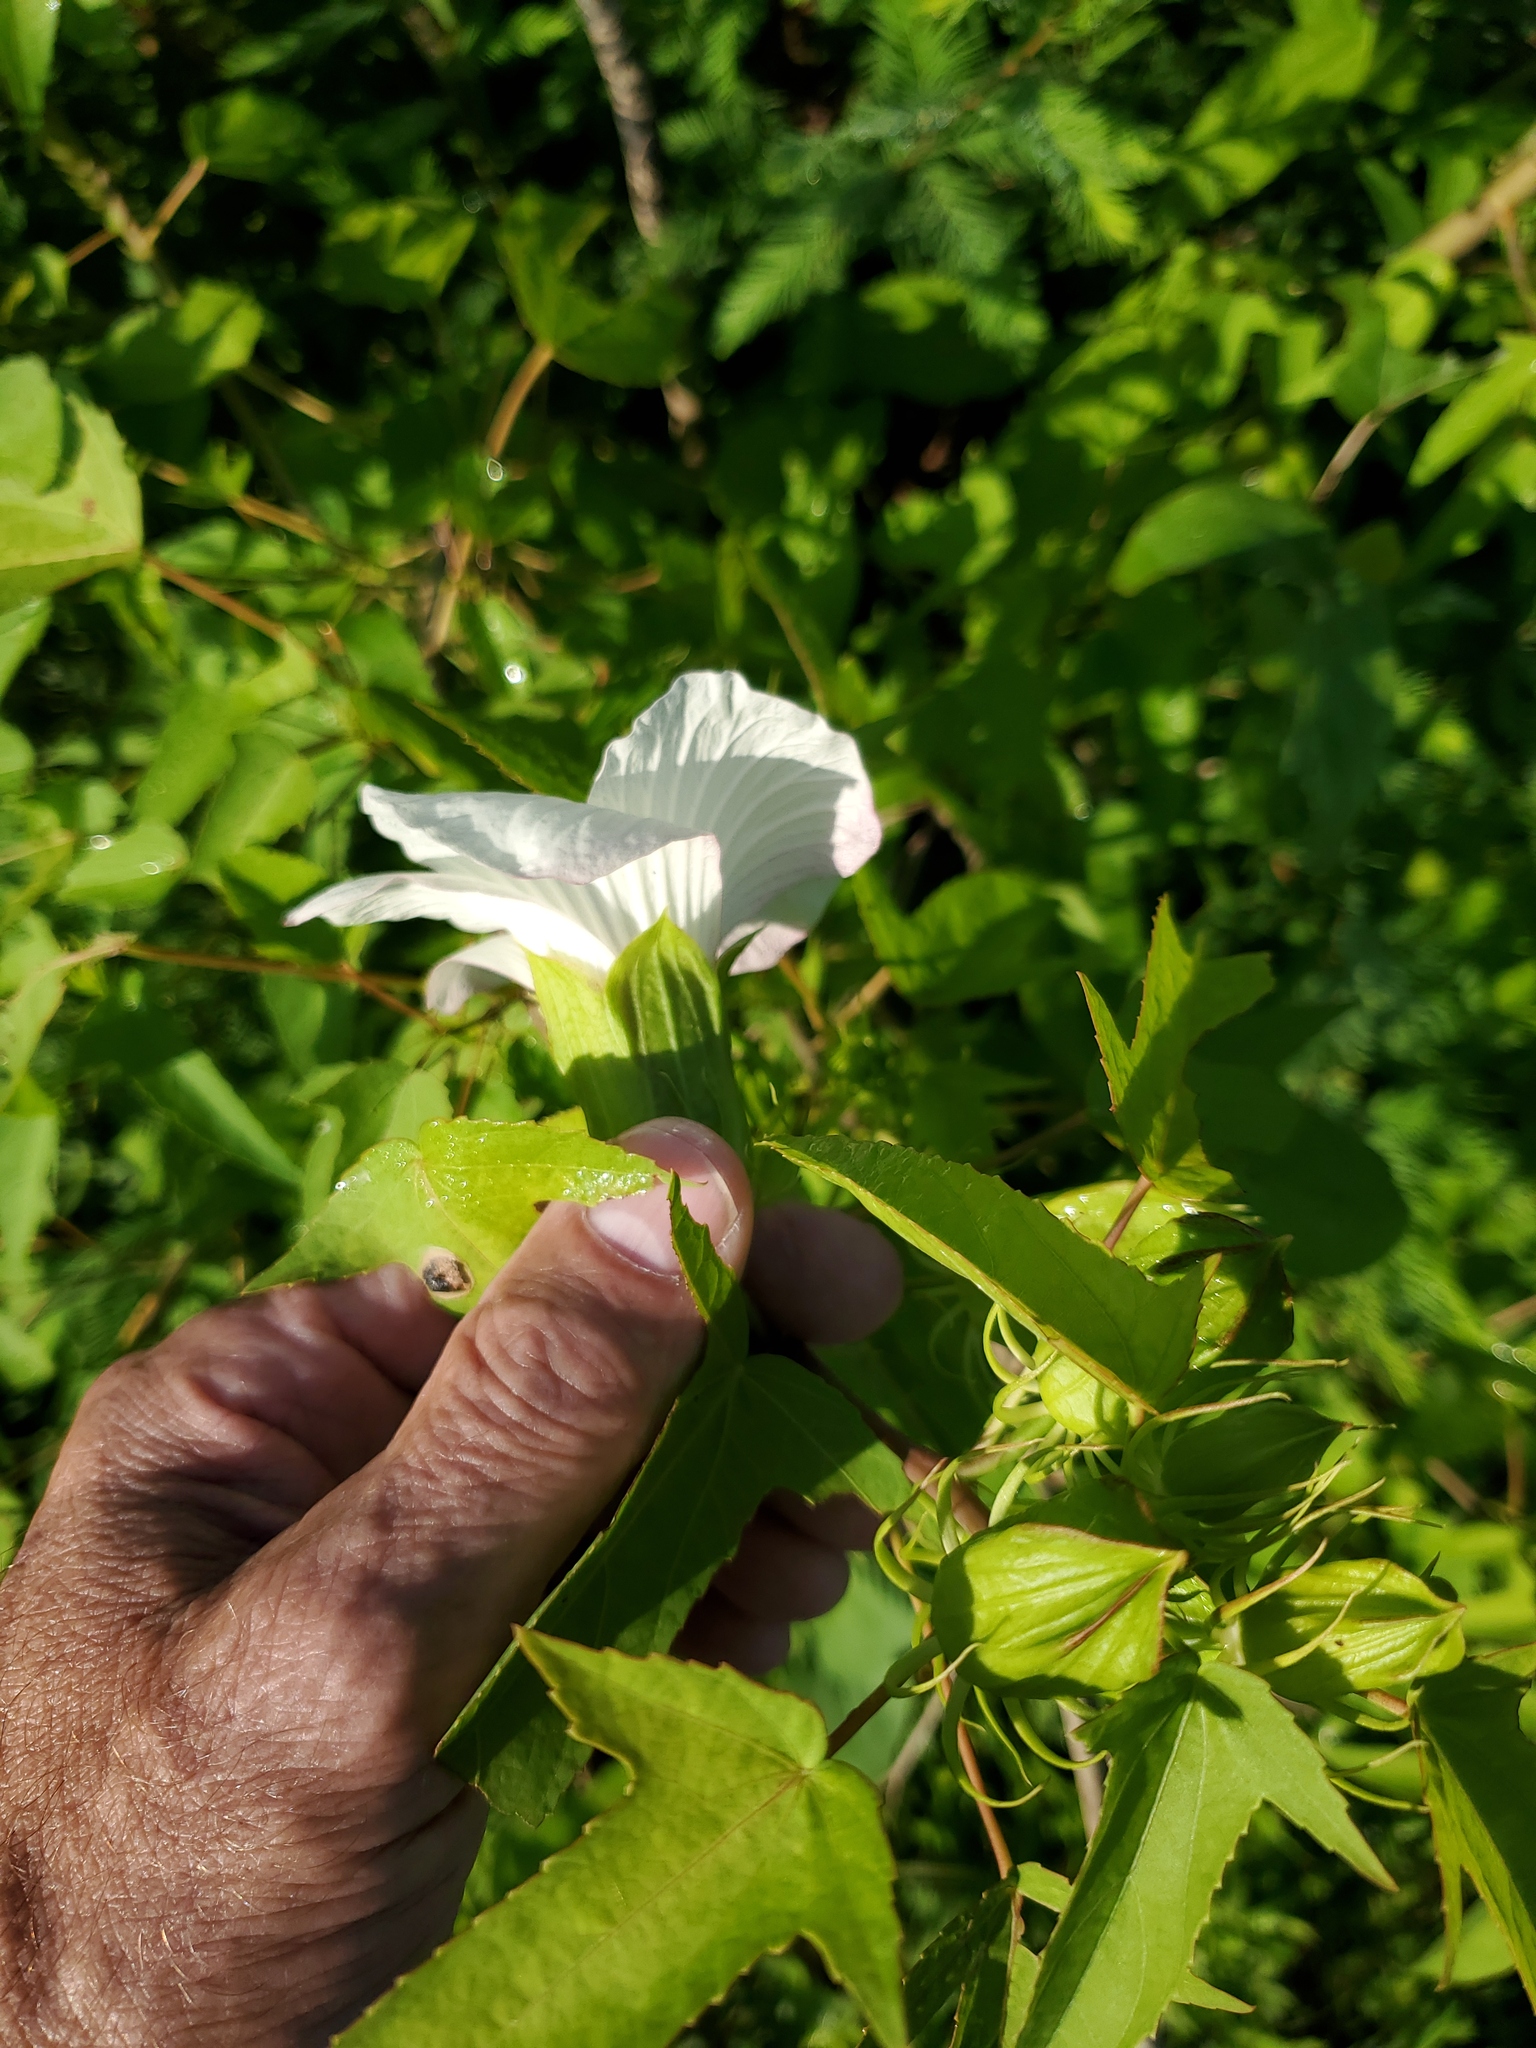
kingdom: Plantae
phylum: Tracheophyta
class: Magnoliopsida
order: Malvales
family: Malvaceae
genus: Hibiscus
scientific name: Hibiscus laevis
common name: Scarlet rose-mallow
